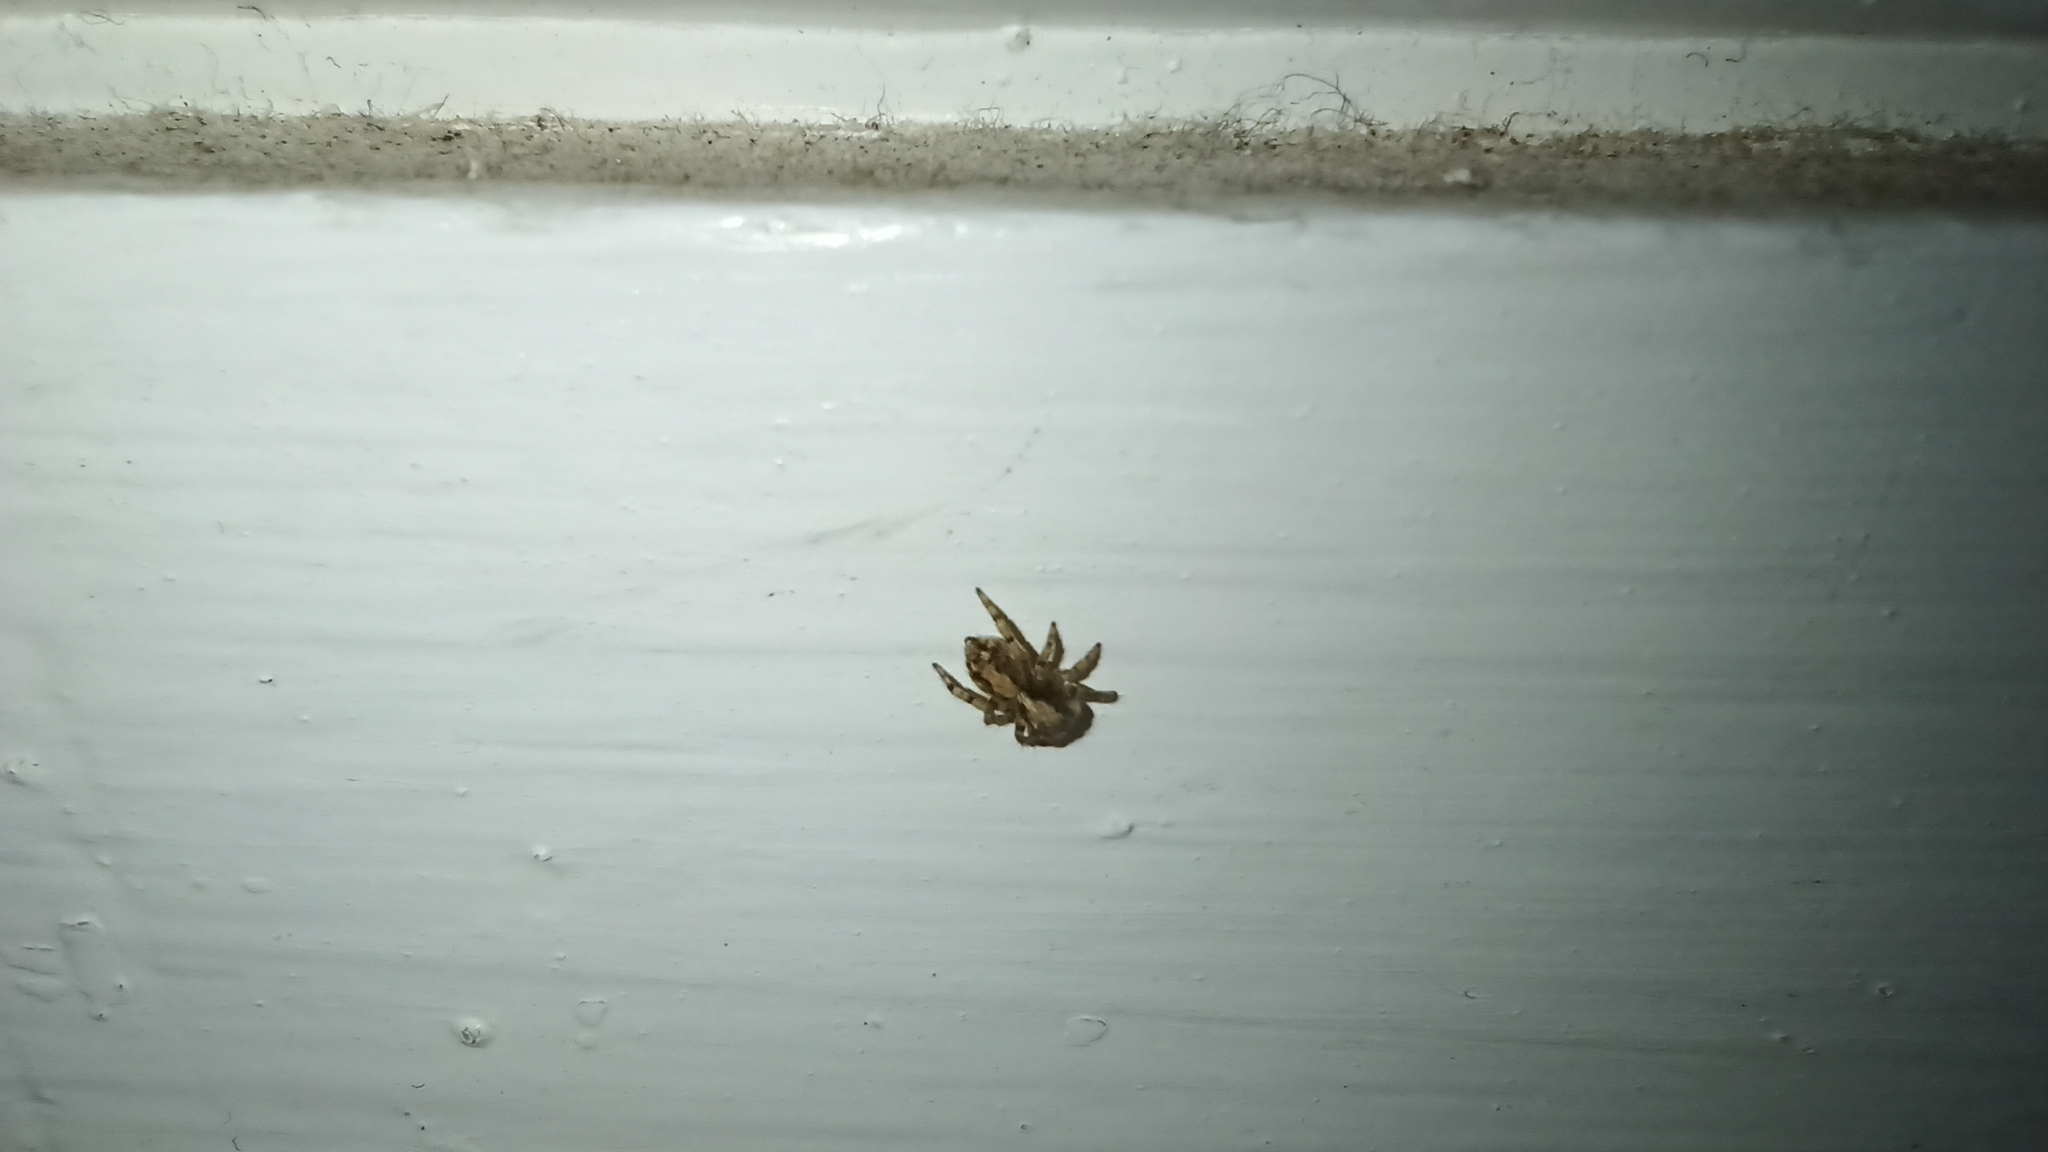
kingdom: Animalia
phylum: Arthropoda
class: Arachnida
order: Araneae
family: Salticidae
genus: Pseudeuophrys
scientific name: Pseudeuophrys lanigera
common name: Jumping spider
